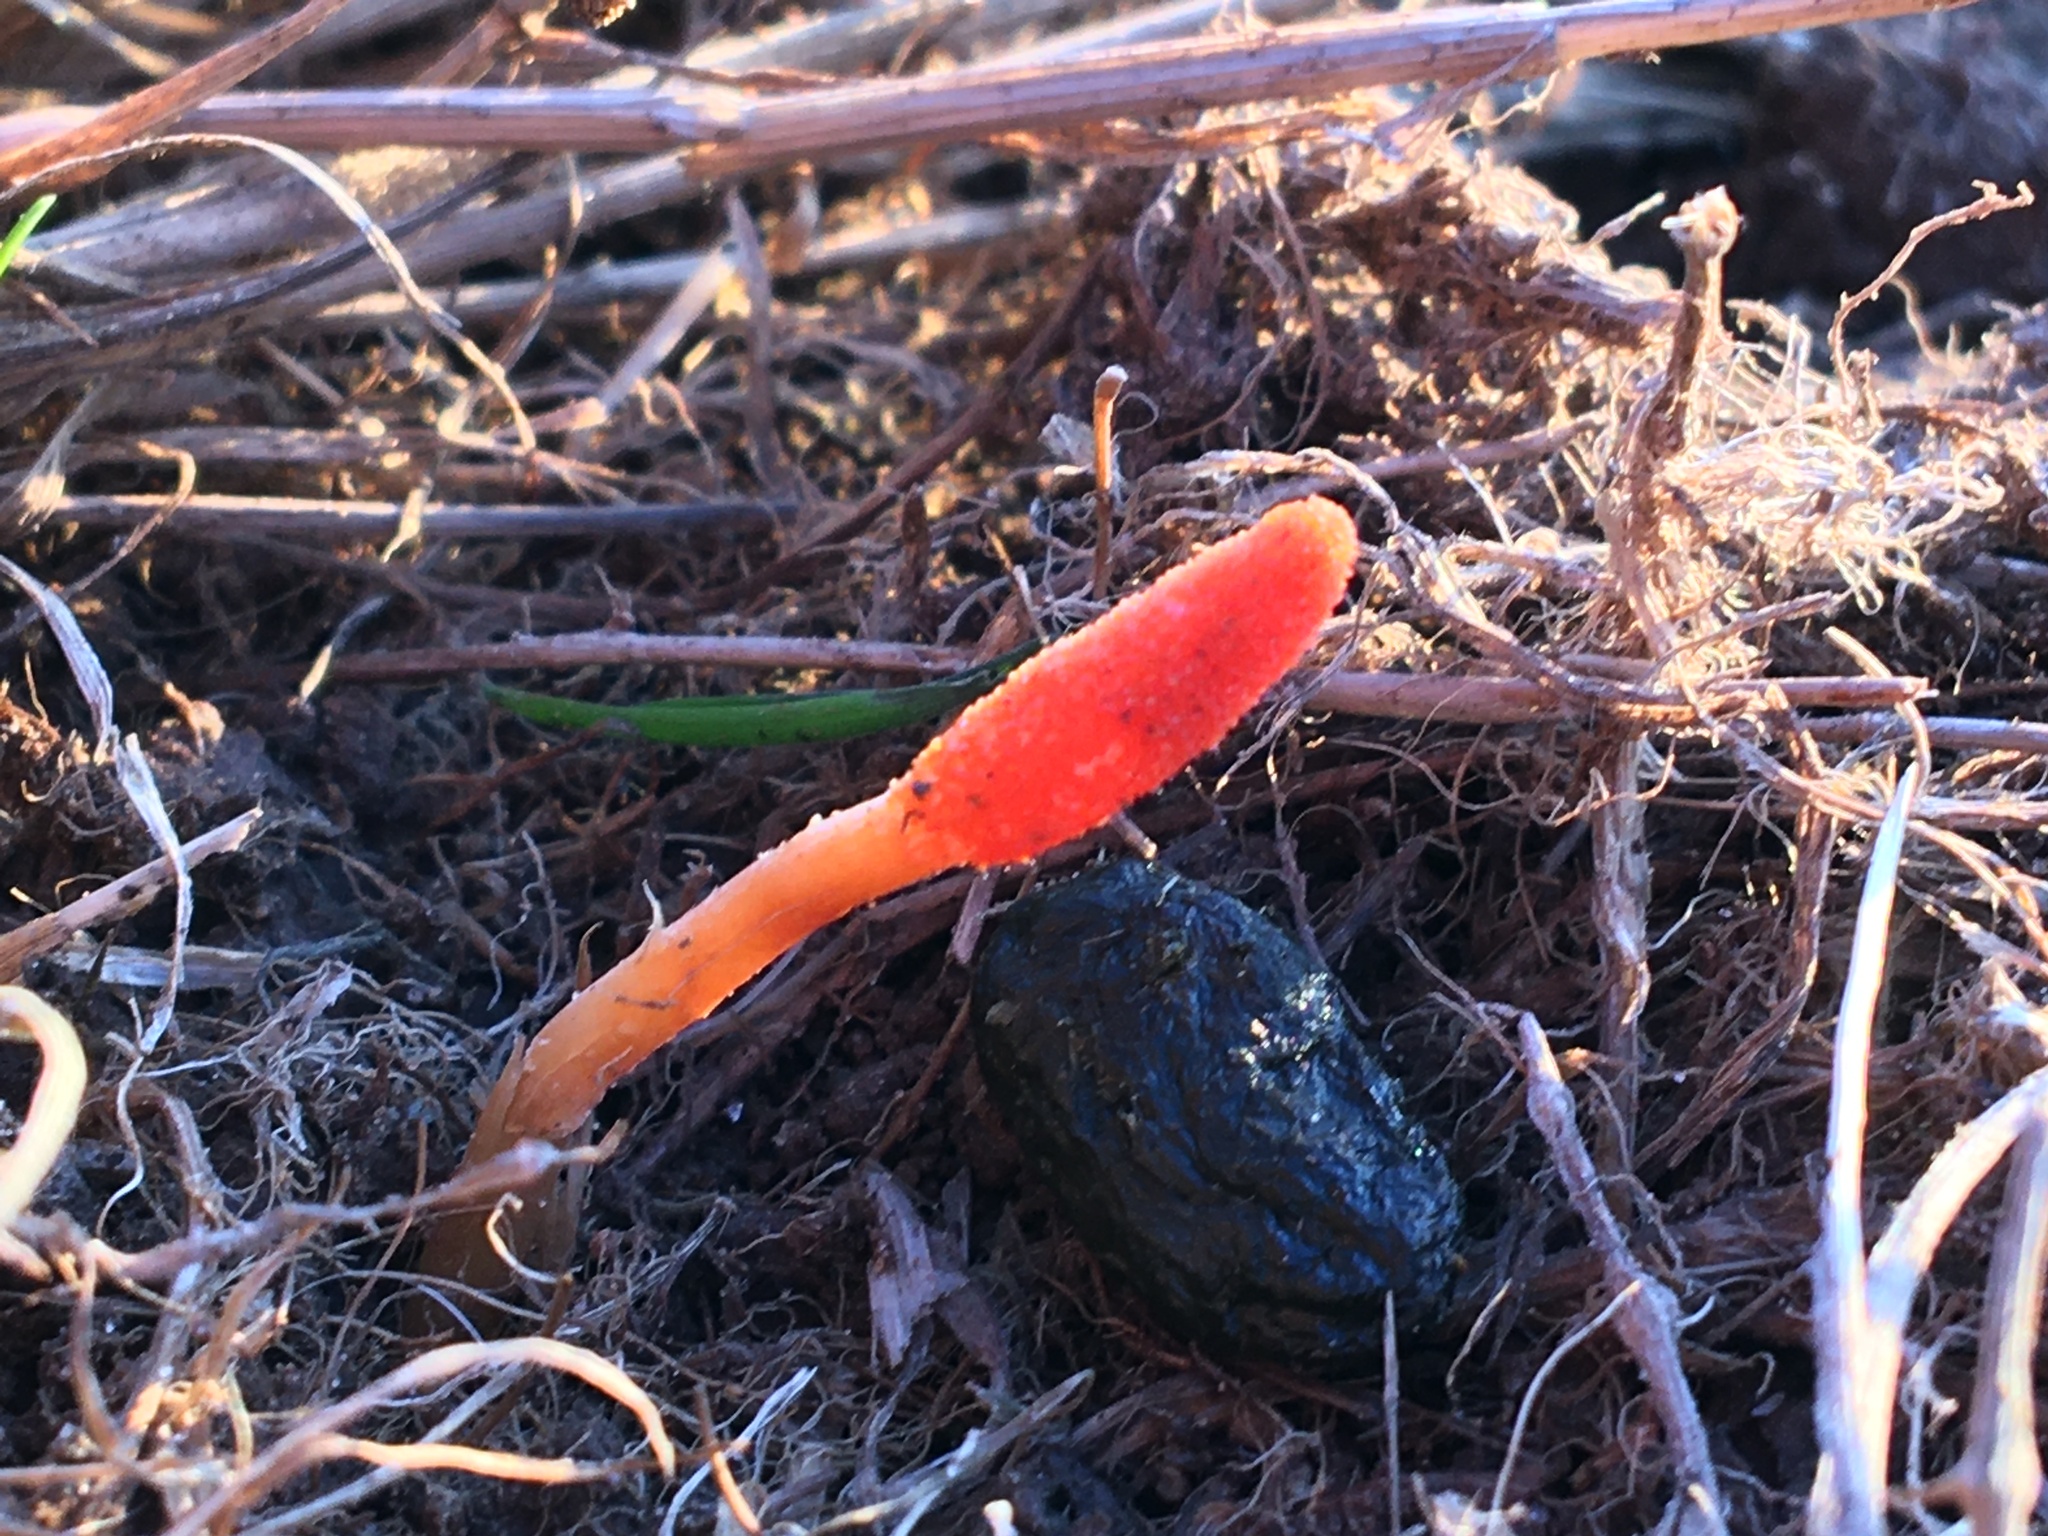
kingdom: Fungi
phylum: Ascomycota
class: Sordariomycetes
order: Hypocreales
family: Cordycipitaceae
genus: Cordyceps
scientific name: Cordyceps militaris
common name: Scarlet caterpillar fungus
